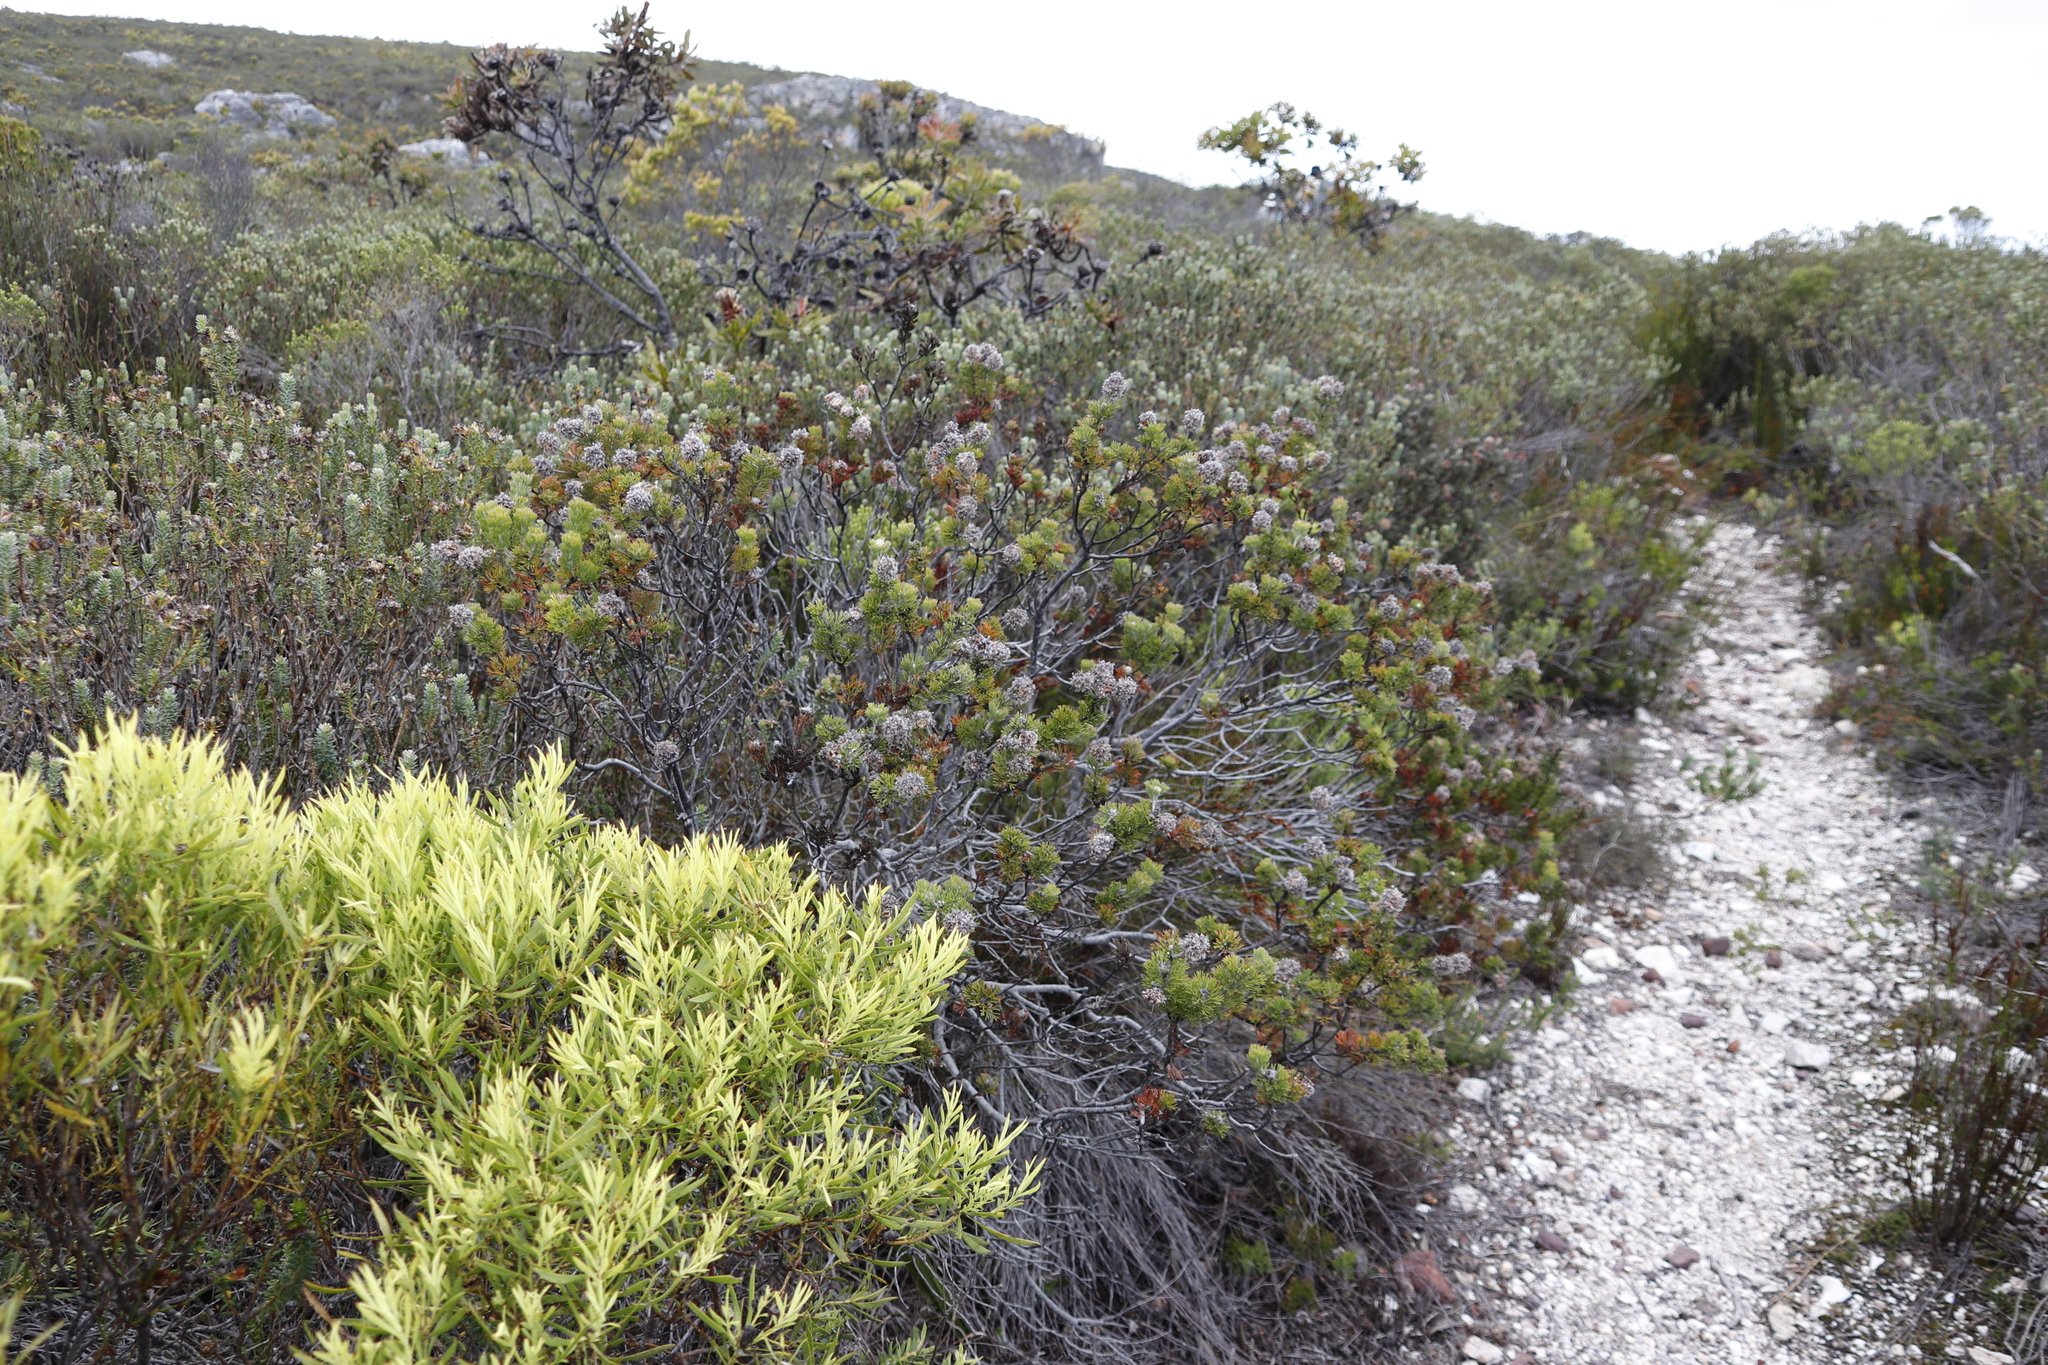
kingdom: Plantae
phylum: Tracheophyta
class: Magnoliopsida
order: Proteales
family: Proteaceae
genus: Paranomus
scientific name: Paranomus abrotanifolius
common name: Bredasdorp sceptre
